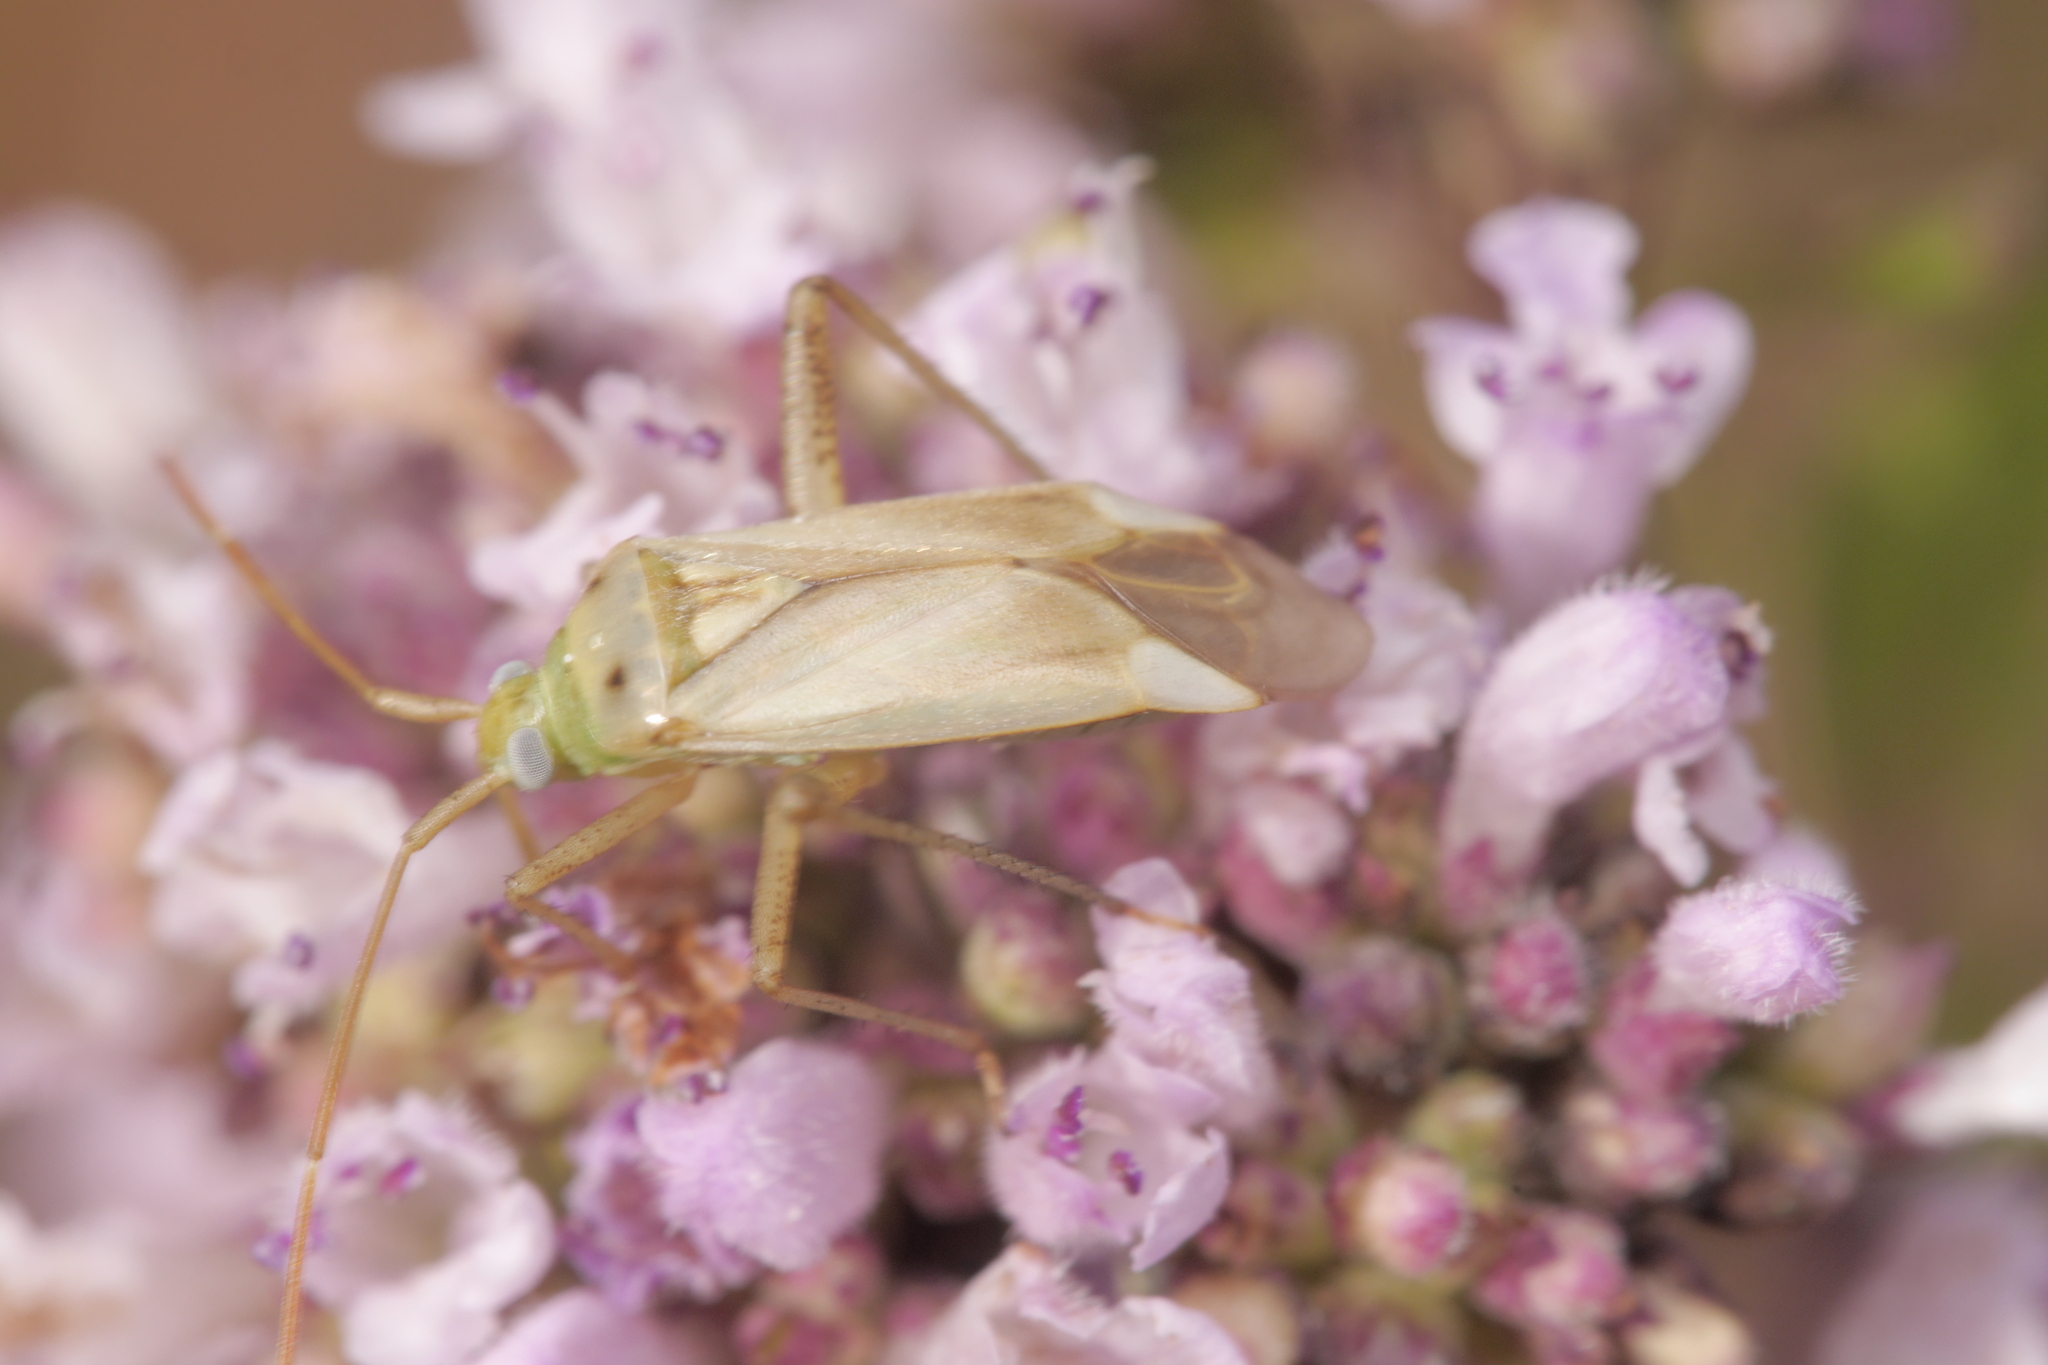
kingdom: Animalia
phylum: Arthropoda
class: Insecta
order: Hemiptera
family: Miridae
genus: Adelphocoris
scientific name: Adelphocoris lineolatus
